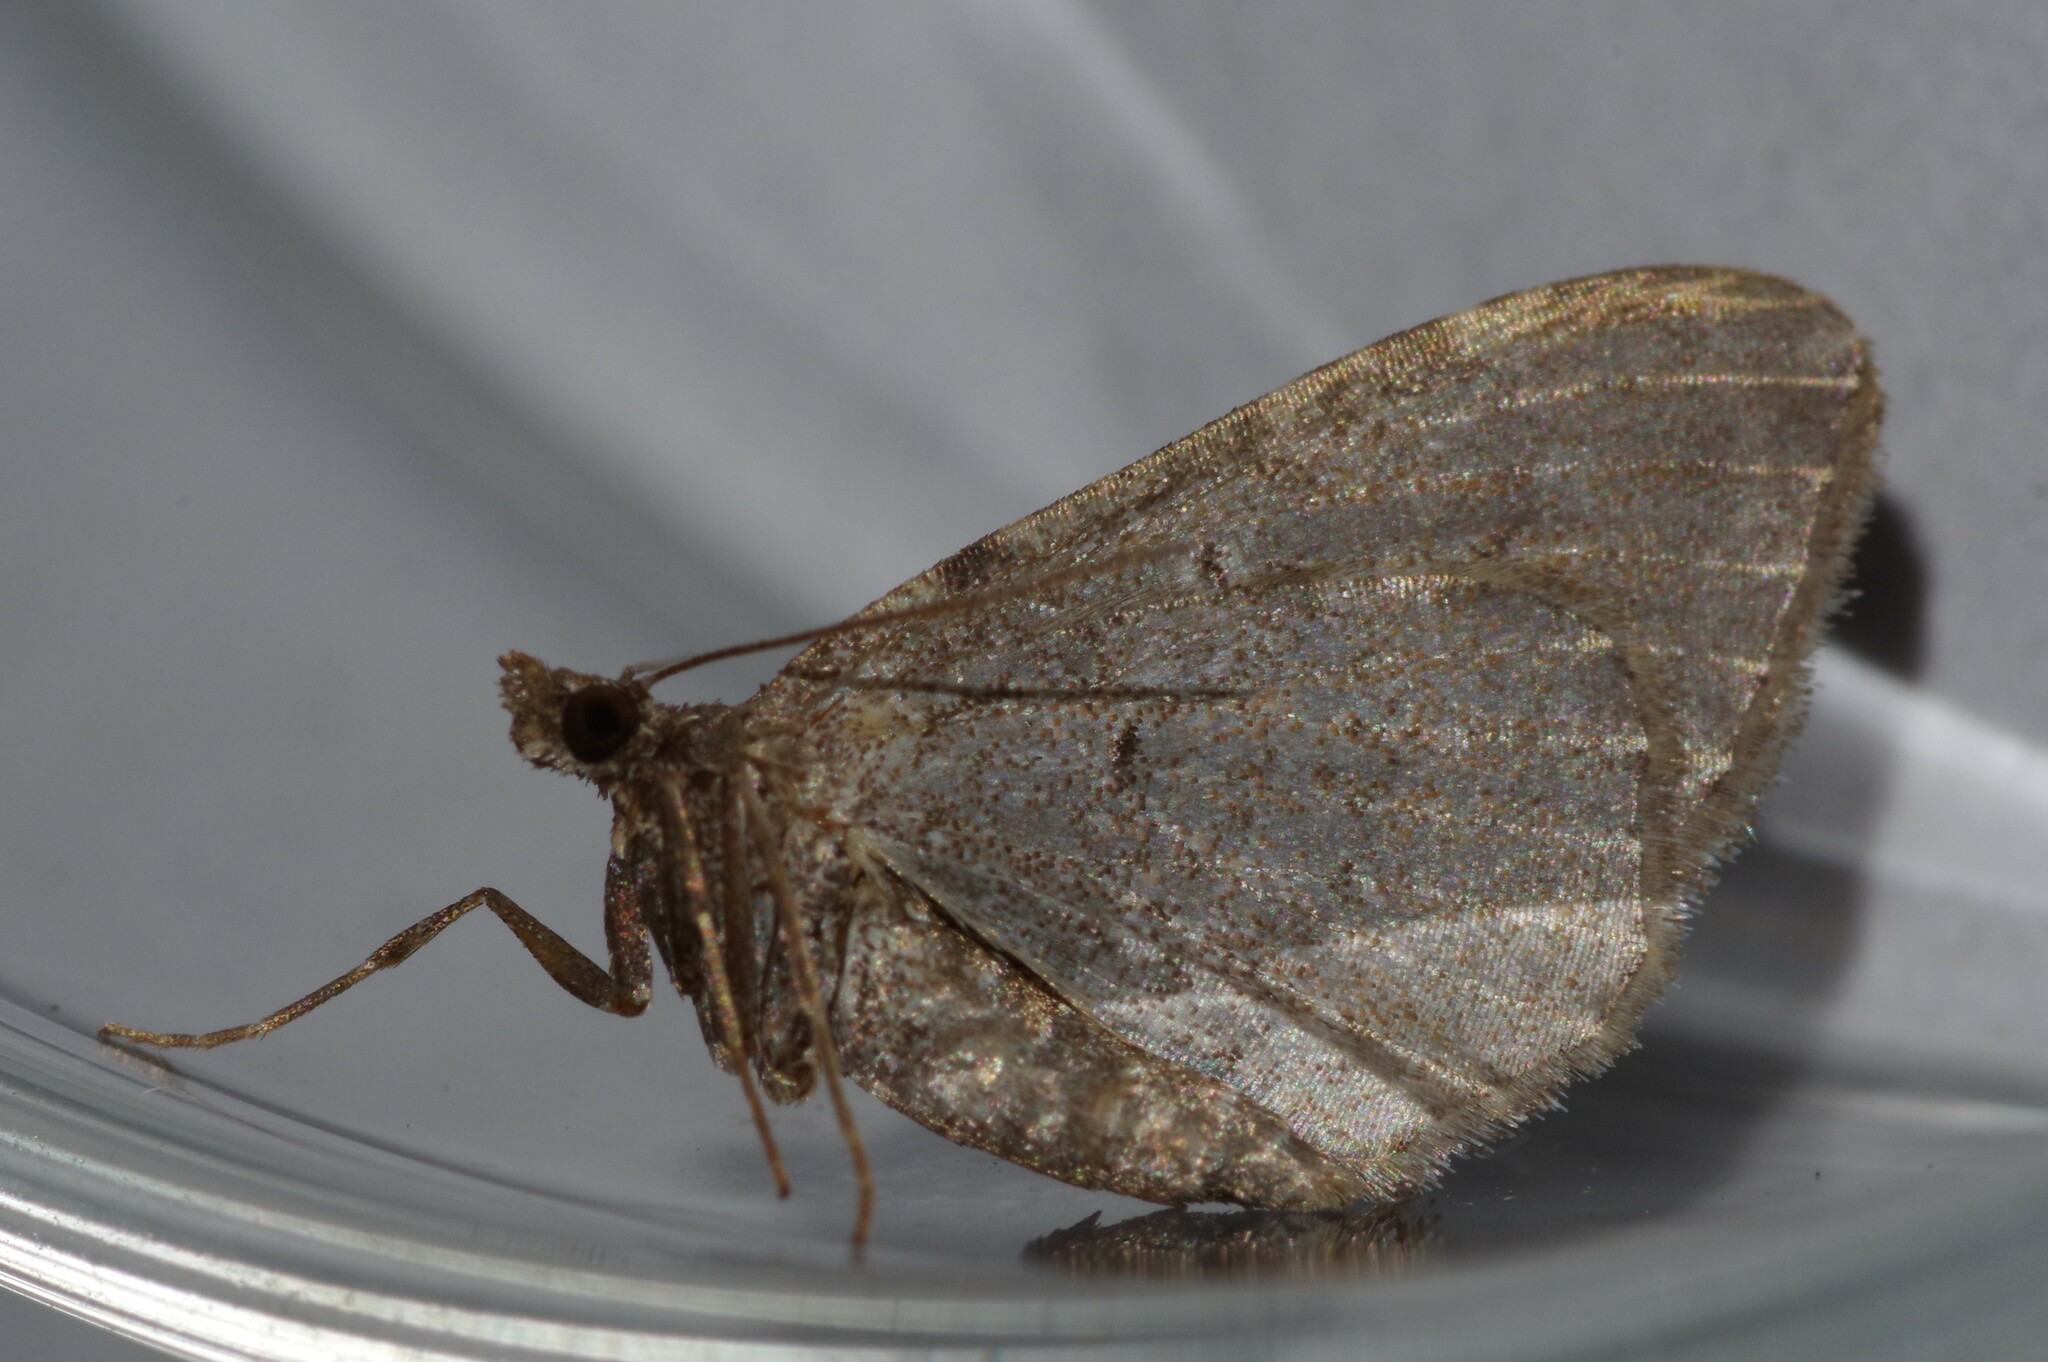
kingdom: Animalia
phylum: Arthropoda
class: Insecta
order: Lepidoptera
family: Geometridae
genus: Orthonama
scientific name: Orthonama obstipata
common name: The gem
